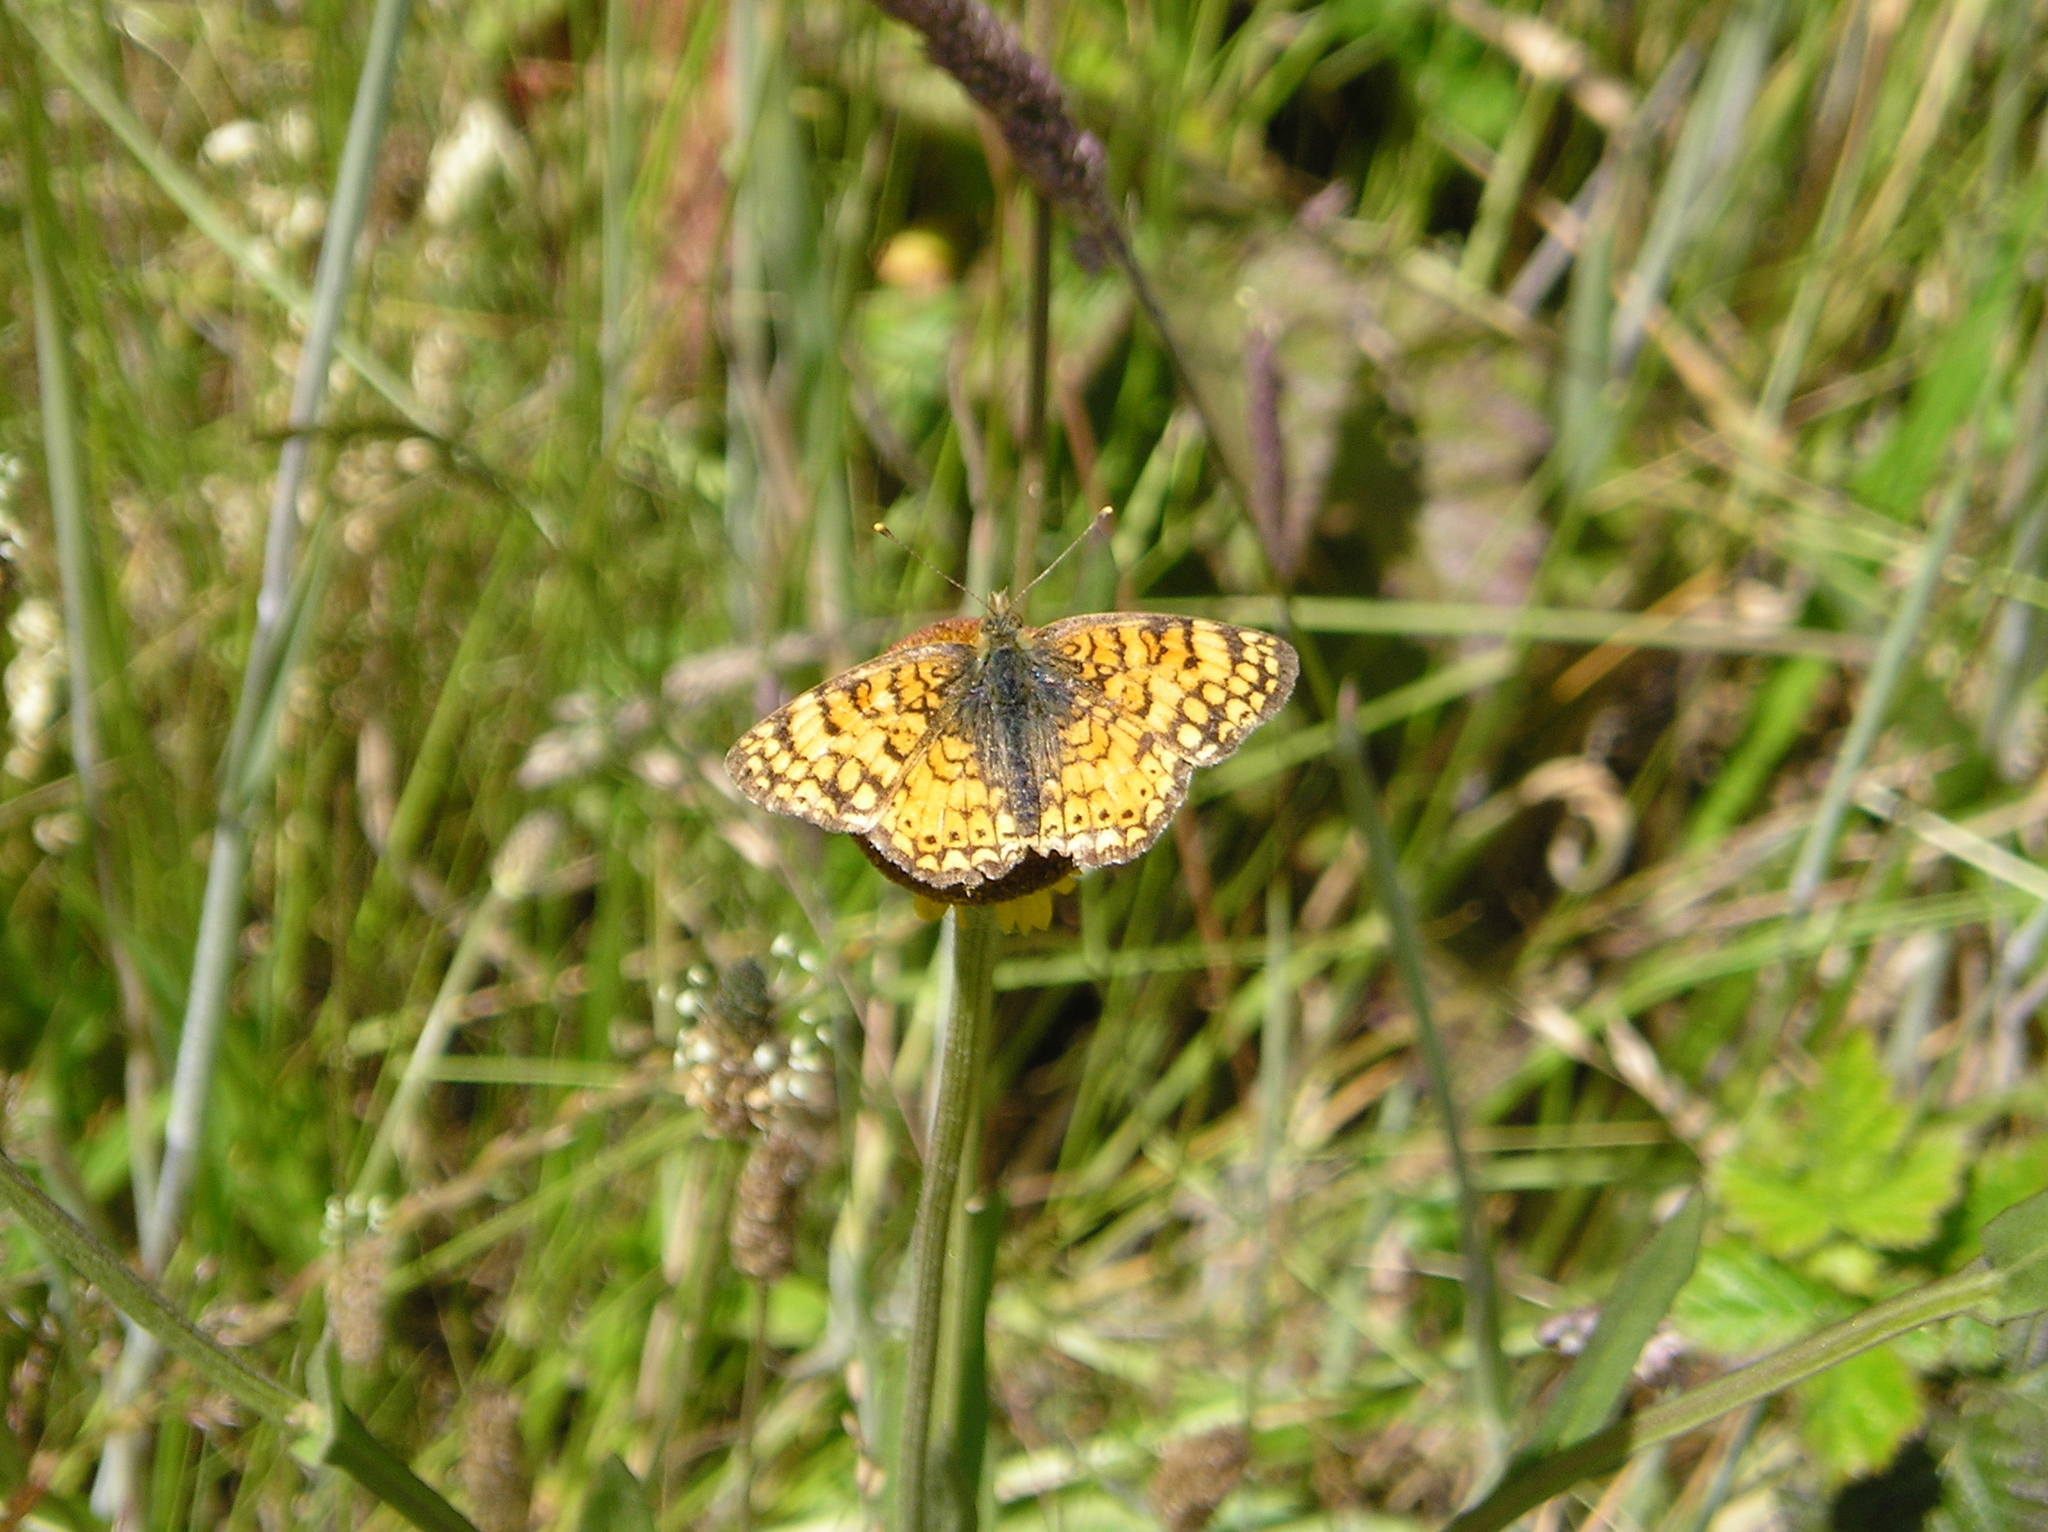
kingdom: Animalia
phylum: Arthropoda
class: Insecta
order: Lepidoptera
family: Nymphalidae
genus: Eresia
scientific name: Eresia aveyrona
